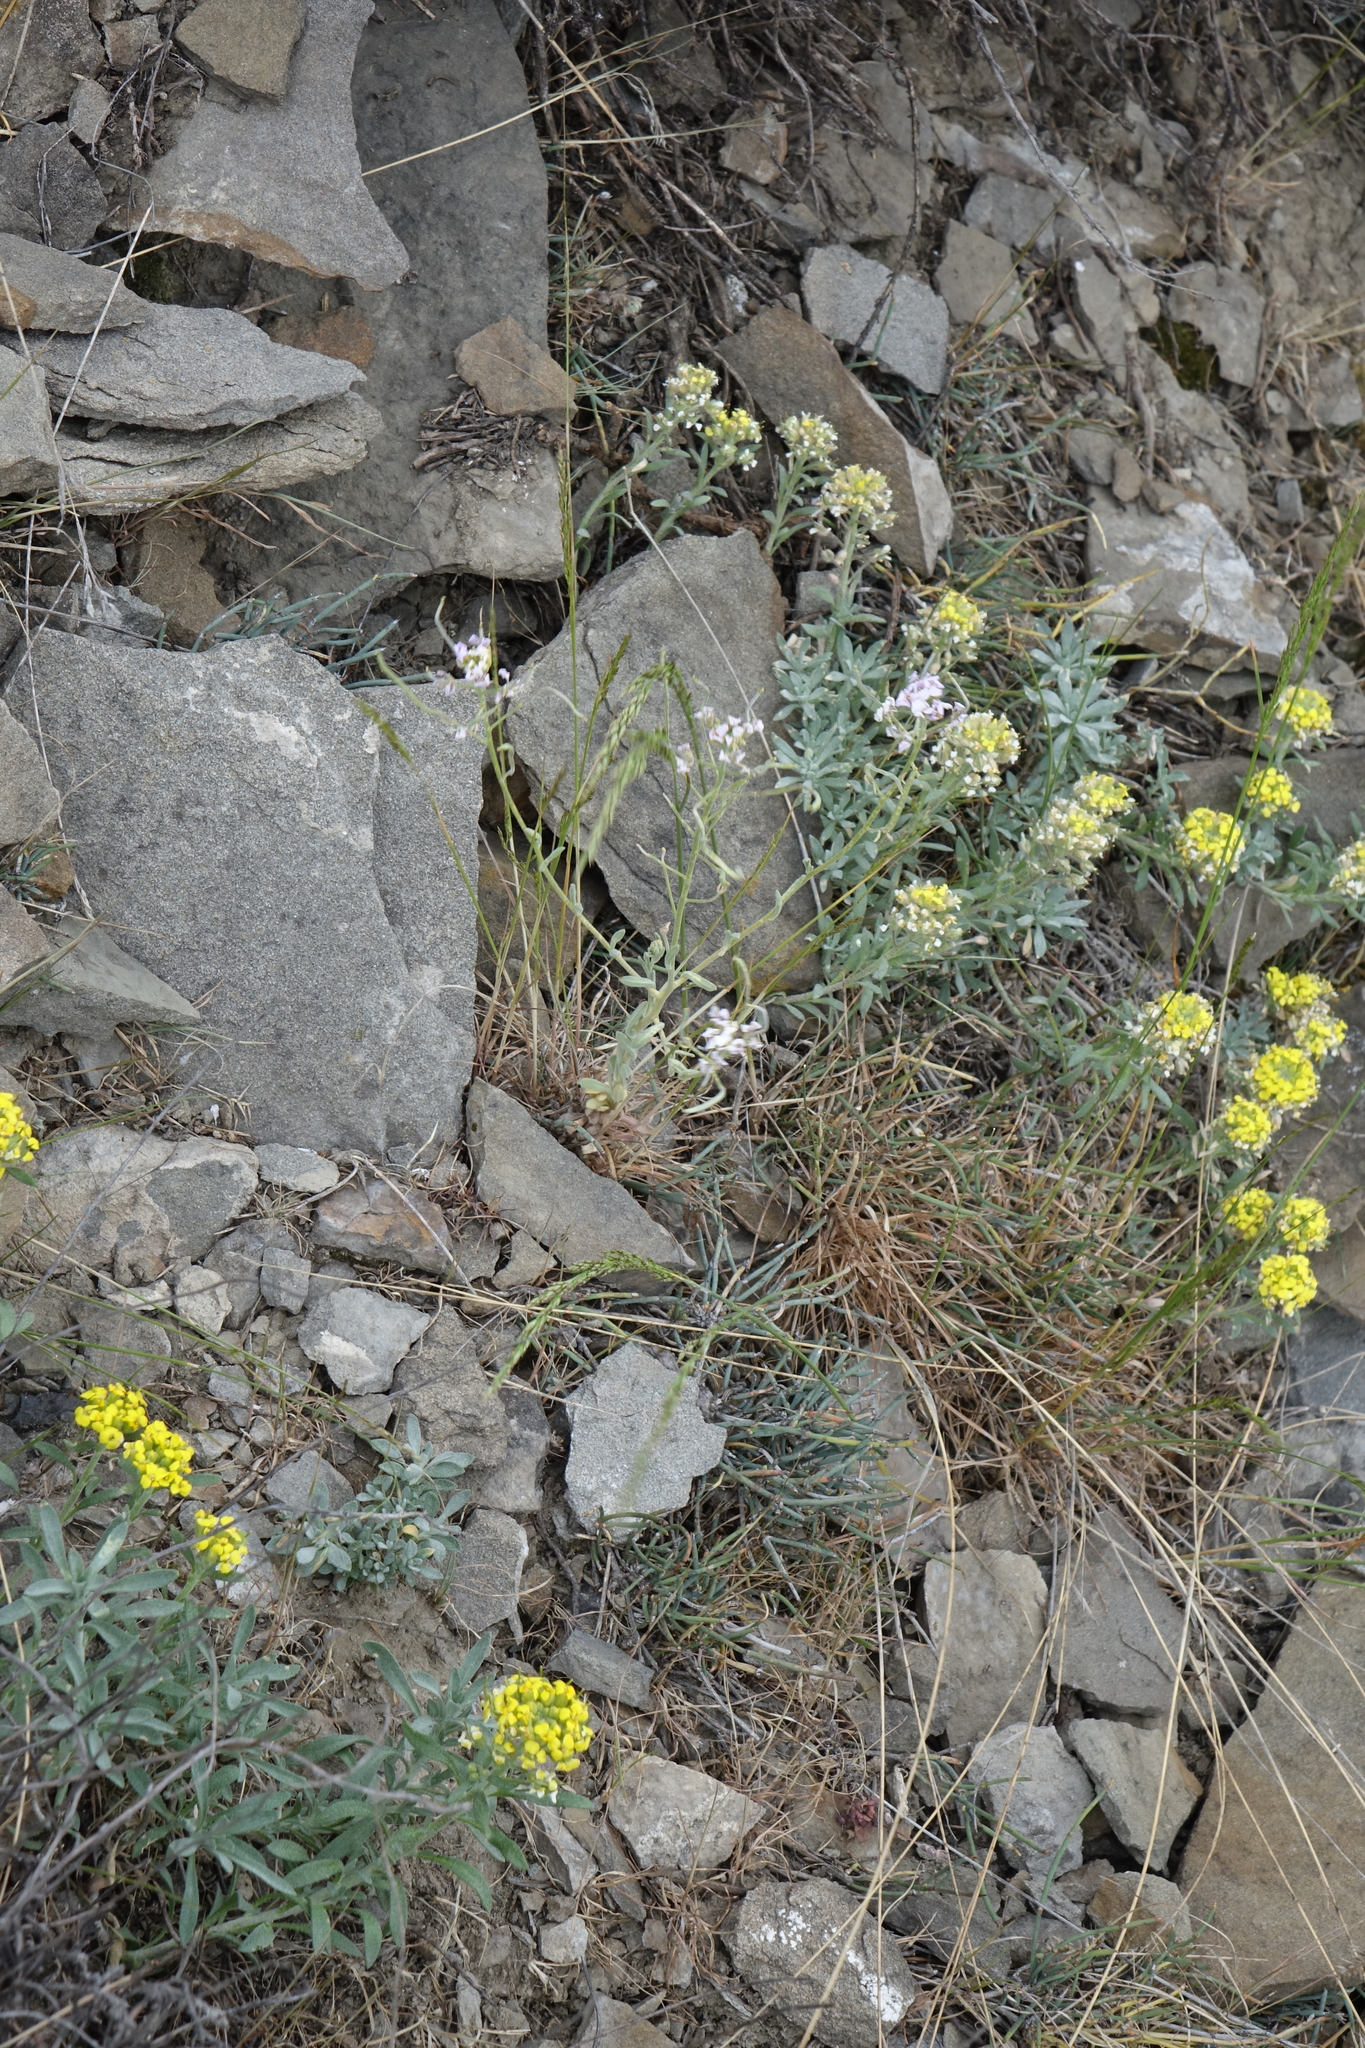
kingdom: Plantae
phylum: Tracheophyta
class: Magnoliopsida
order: Brassicales
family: Brassicaceae
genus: Alyssum
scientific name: Alyssum lenense
